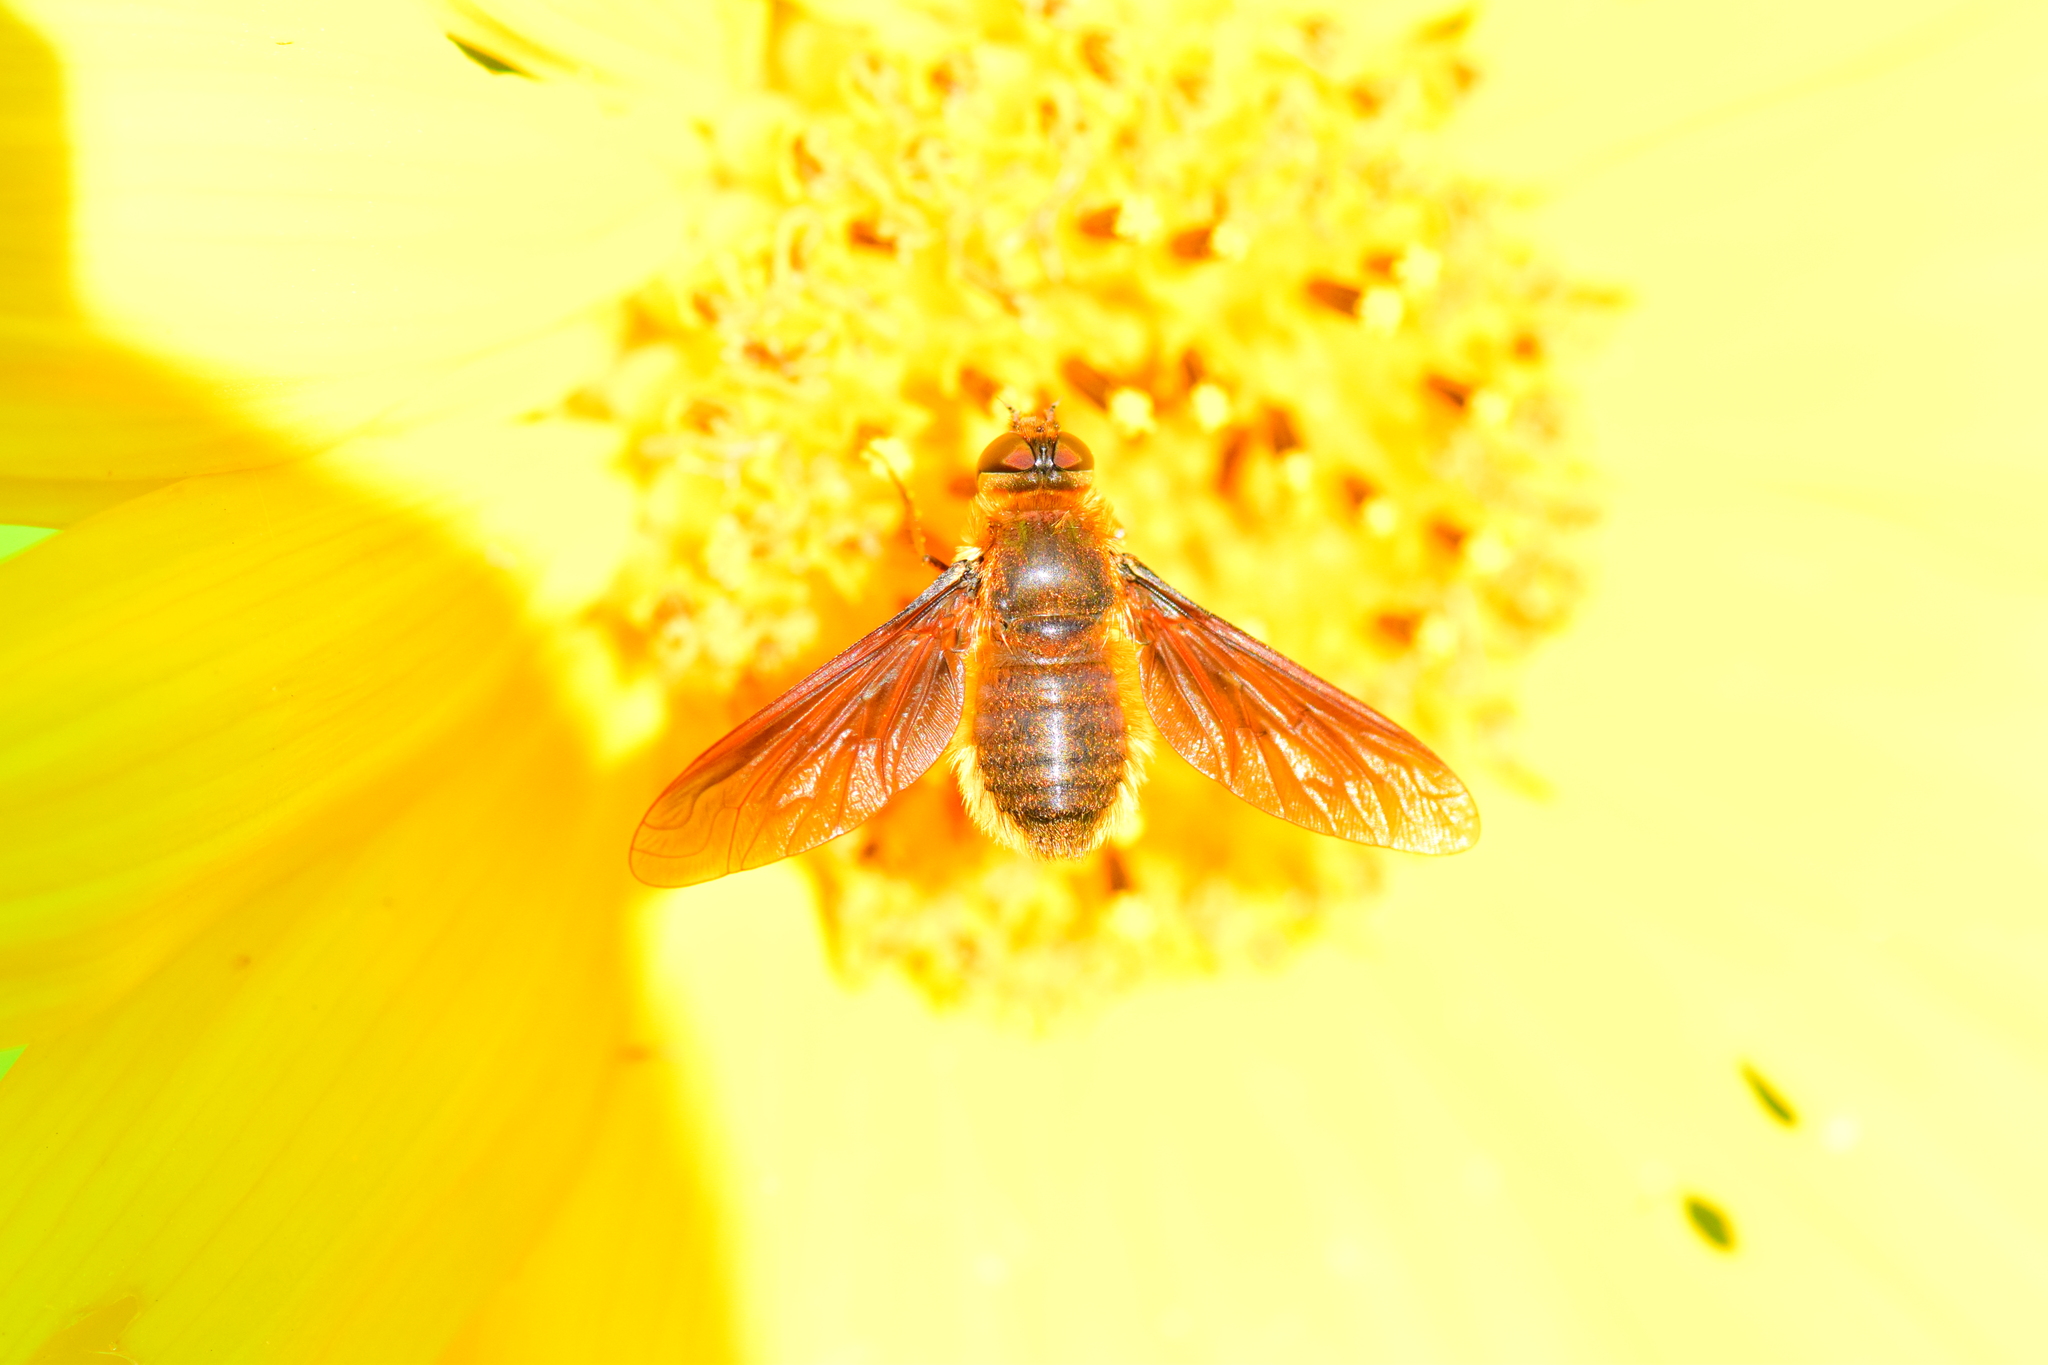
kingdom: Animalia
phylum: Arthropoda
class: Insecta
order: Diptera
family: Bombyliidae
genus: Poecilanthrax
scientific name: Poecilanthrax tegminipennis
